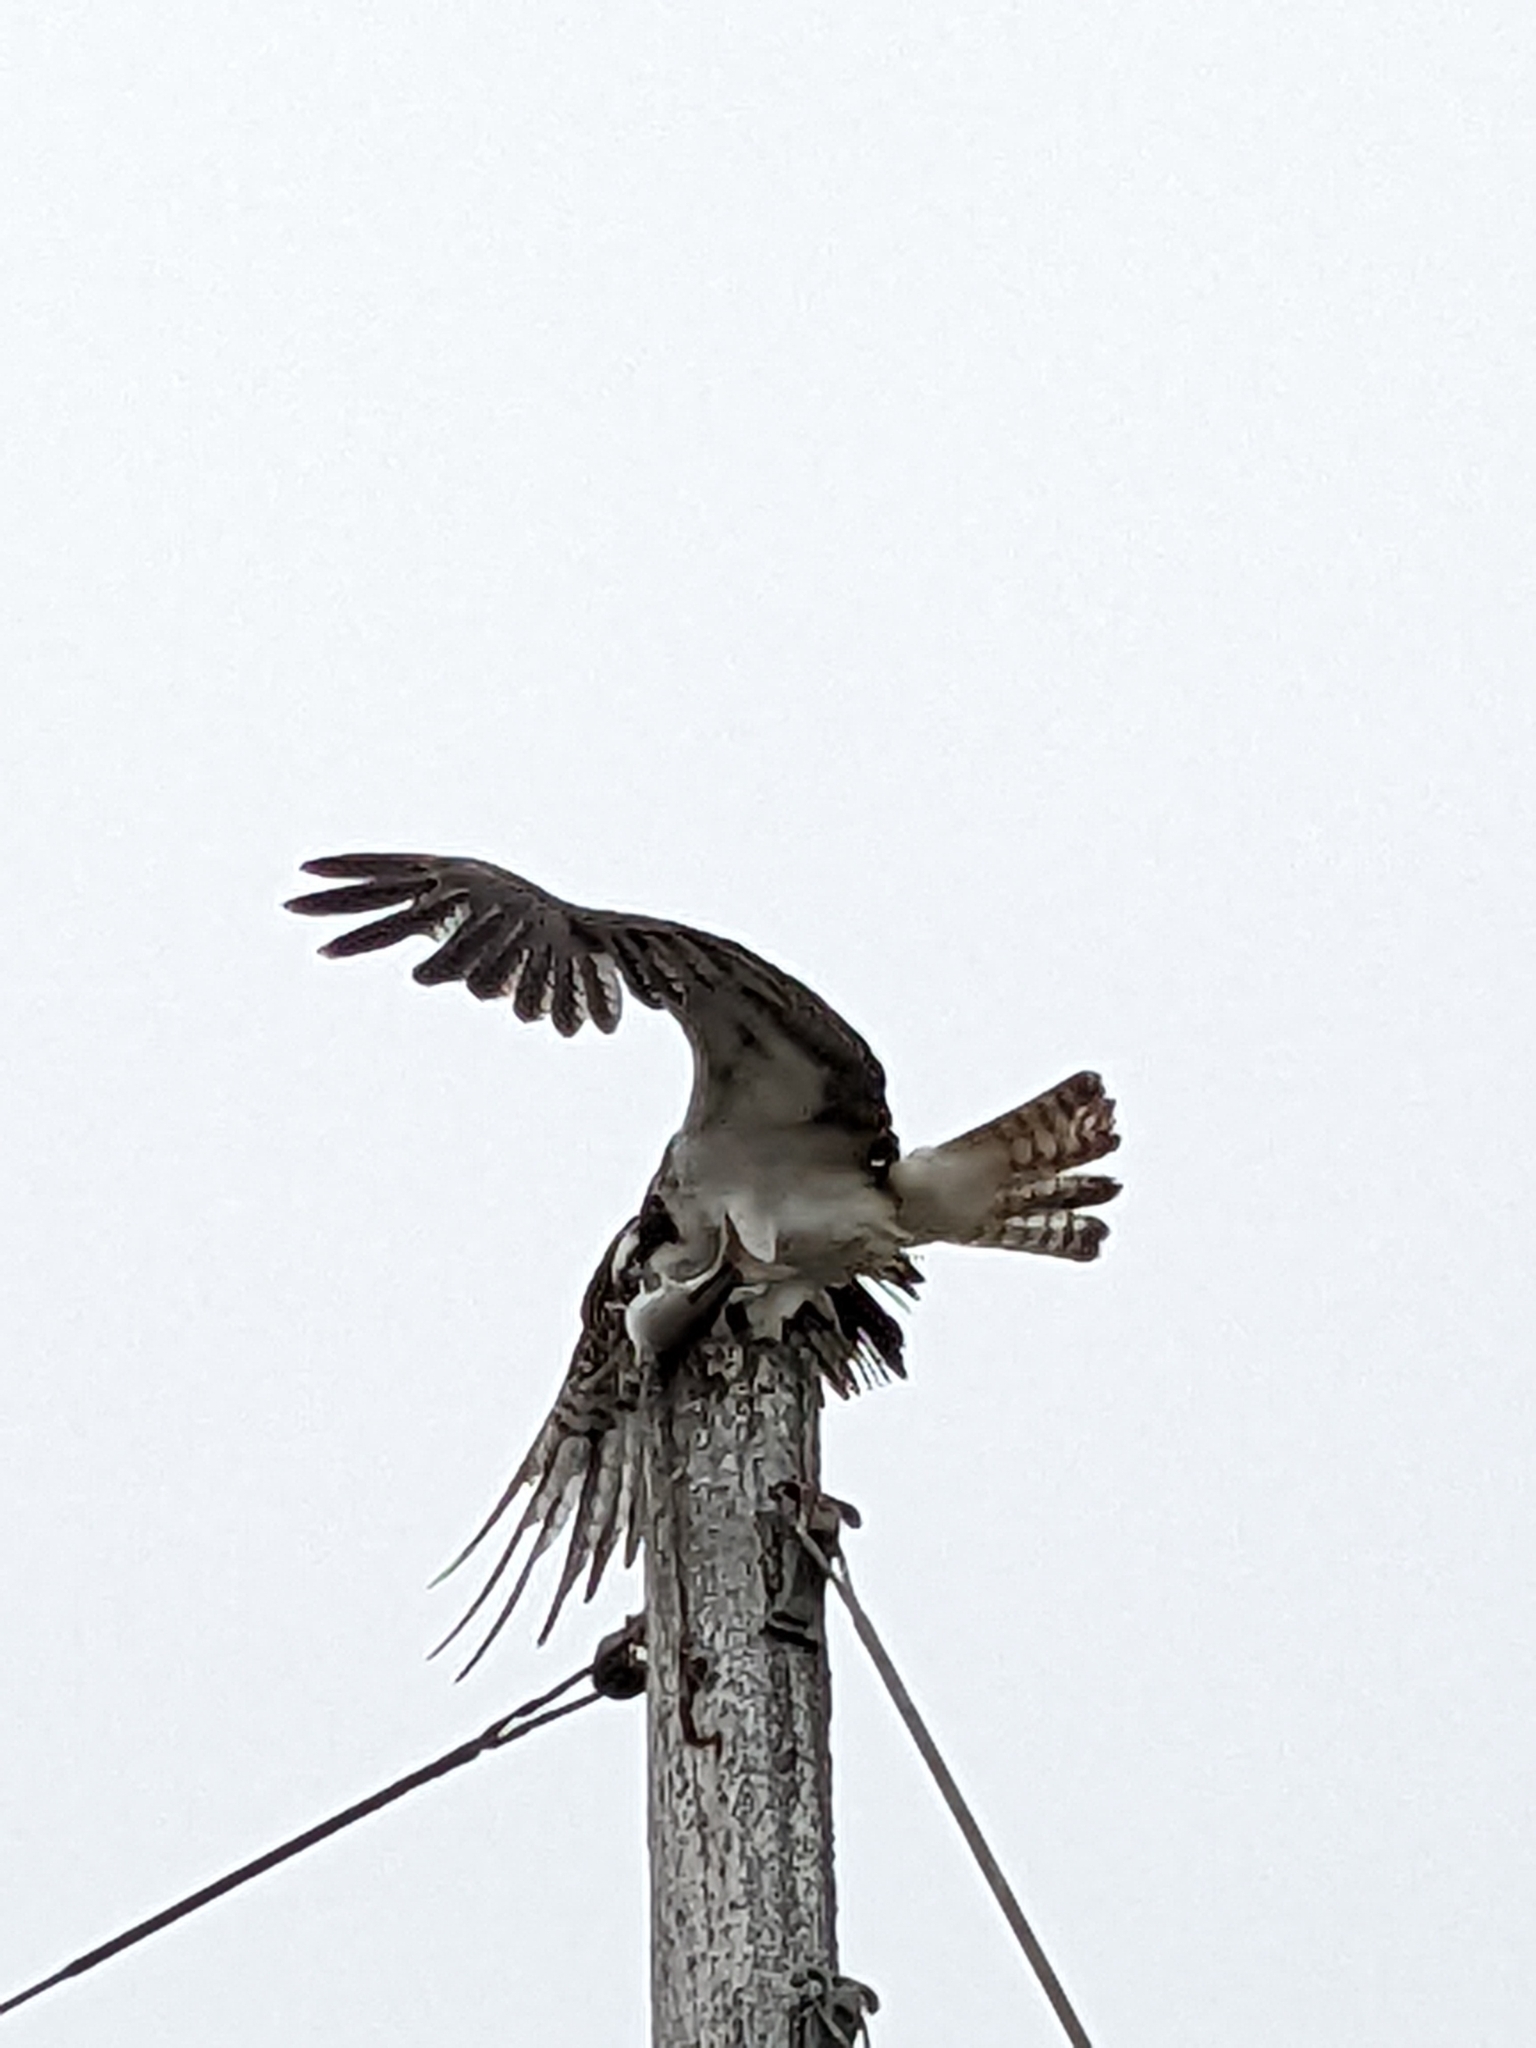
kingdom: Animalia
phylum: Chordata
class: Aves
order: Accipitriformes
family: Pandionidae
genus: Pandion
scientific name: Pandion haliaetus
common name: Osprey
